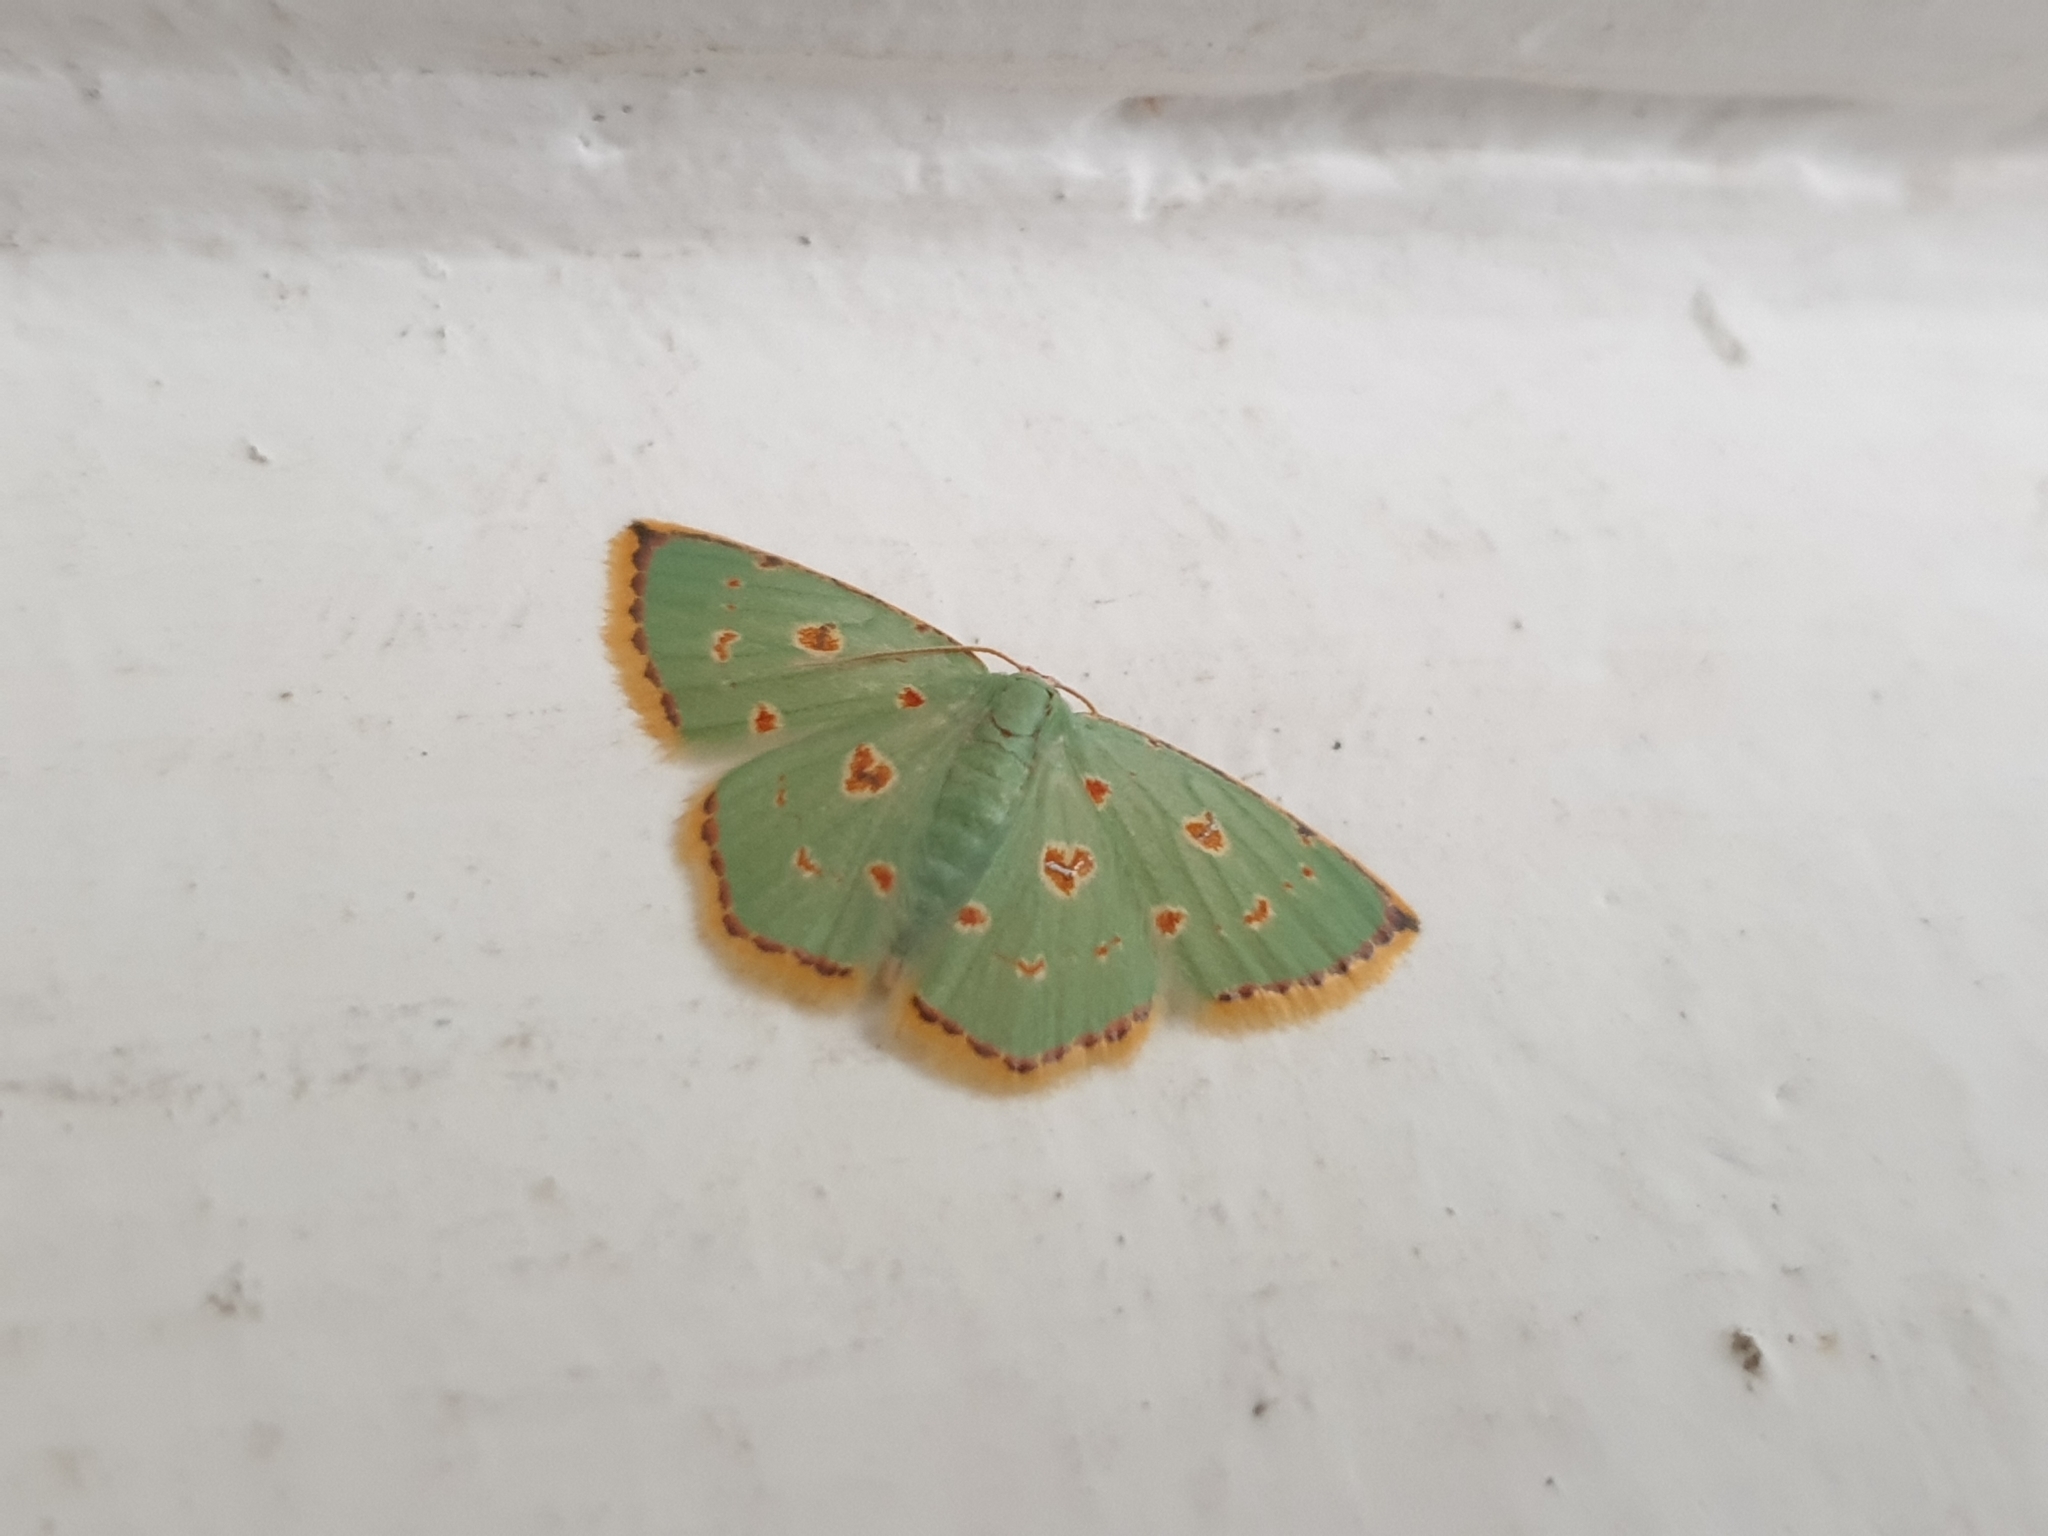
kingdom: Animalia
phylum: Arthropoda
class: Insecta
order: Lepidoptera
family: Geometridae
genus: Comostola
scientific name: Comostola laesaria
